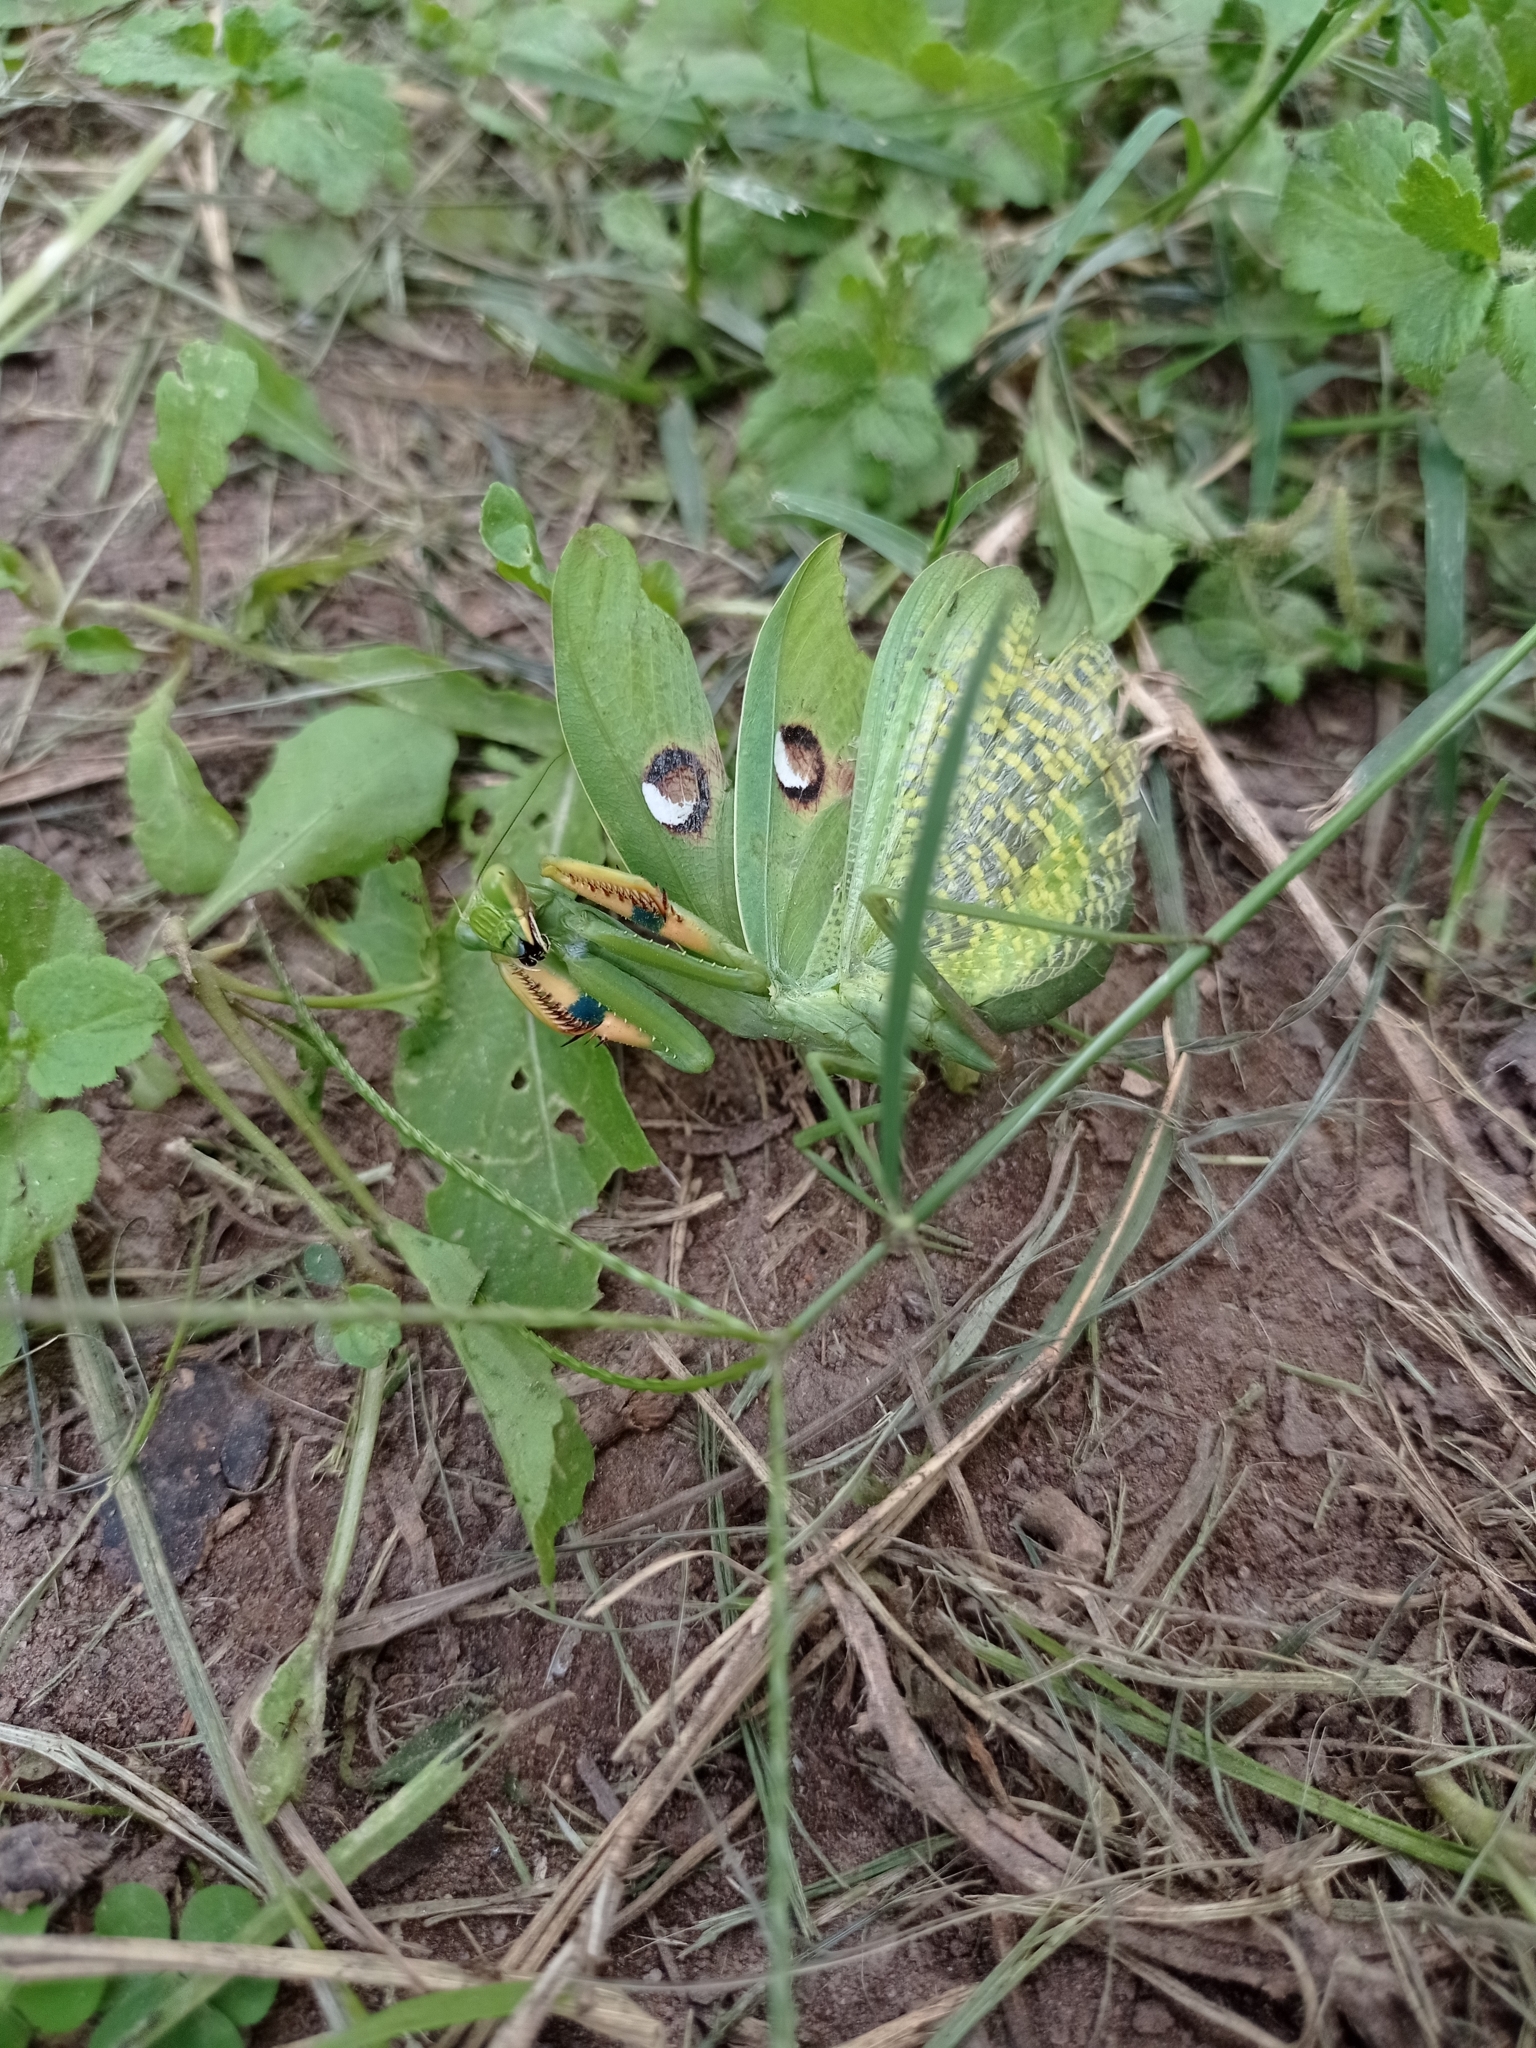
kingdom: Animalia
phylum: Arthropoda
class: Insecta
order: Mantodea
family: Mantidae
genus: Stagmatoptera
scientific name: Stagmatoptera hyaloptera
